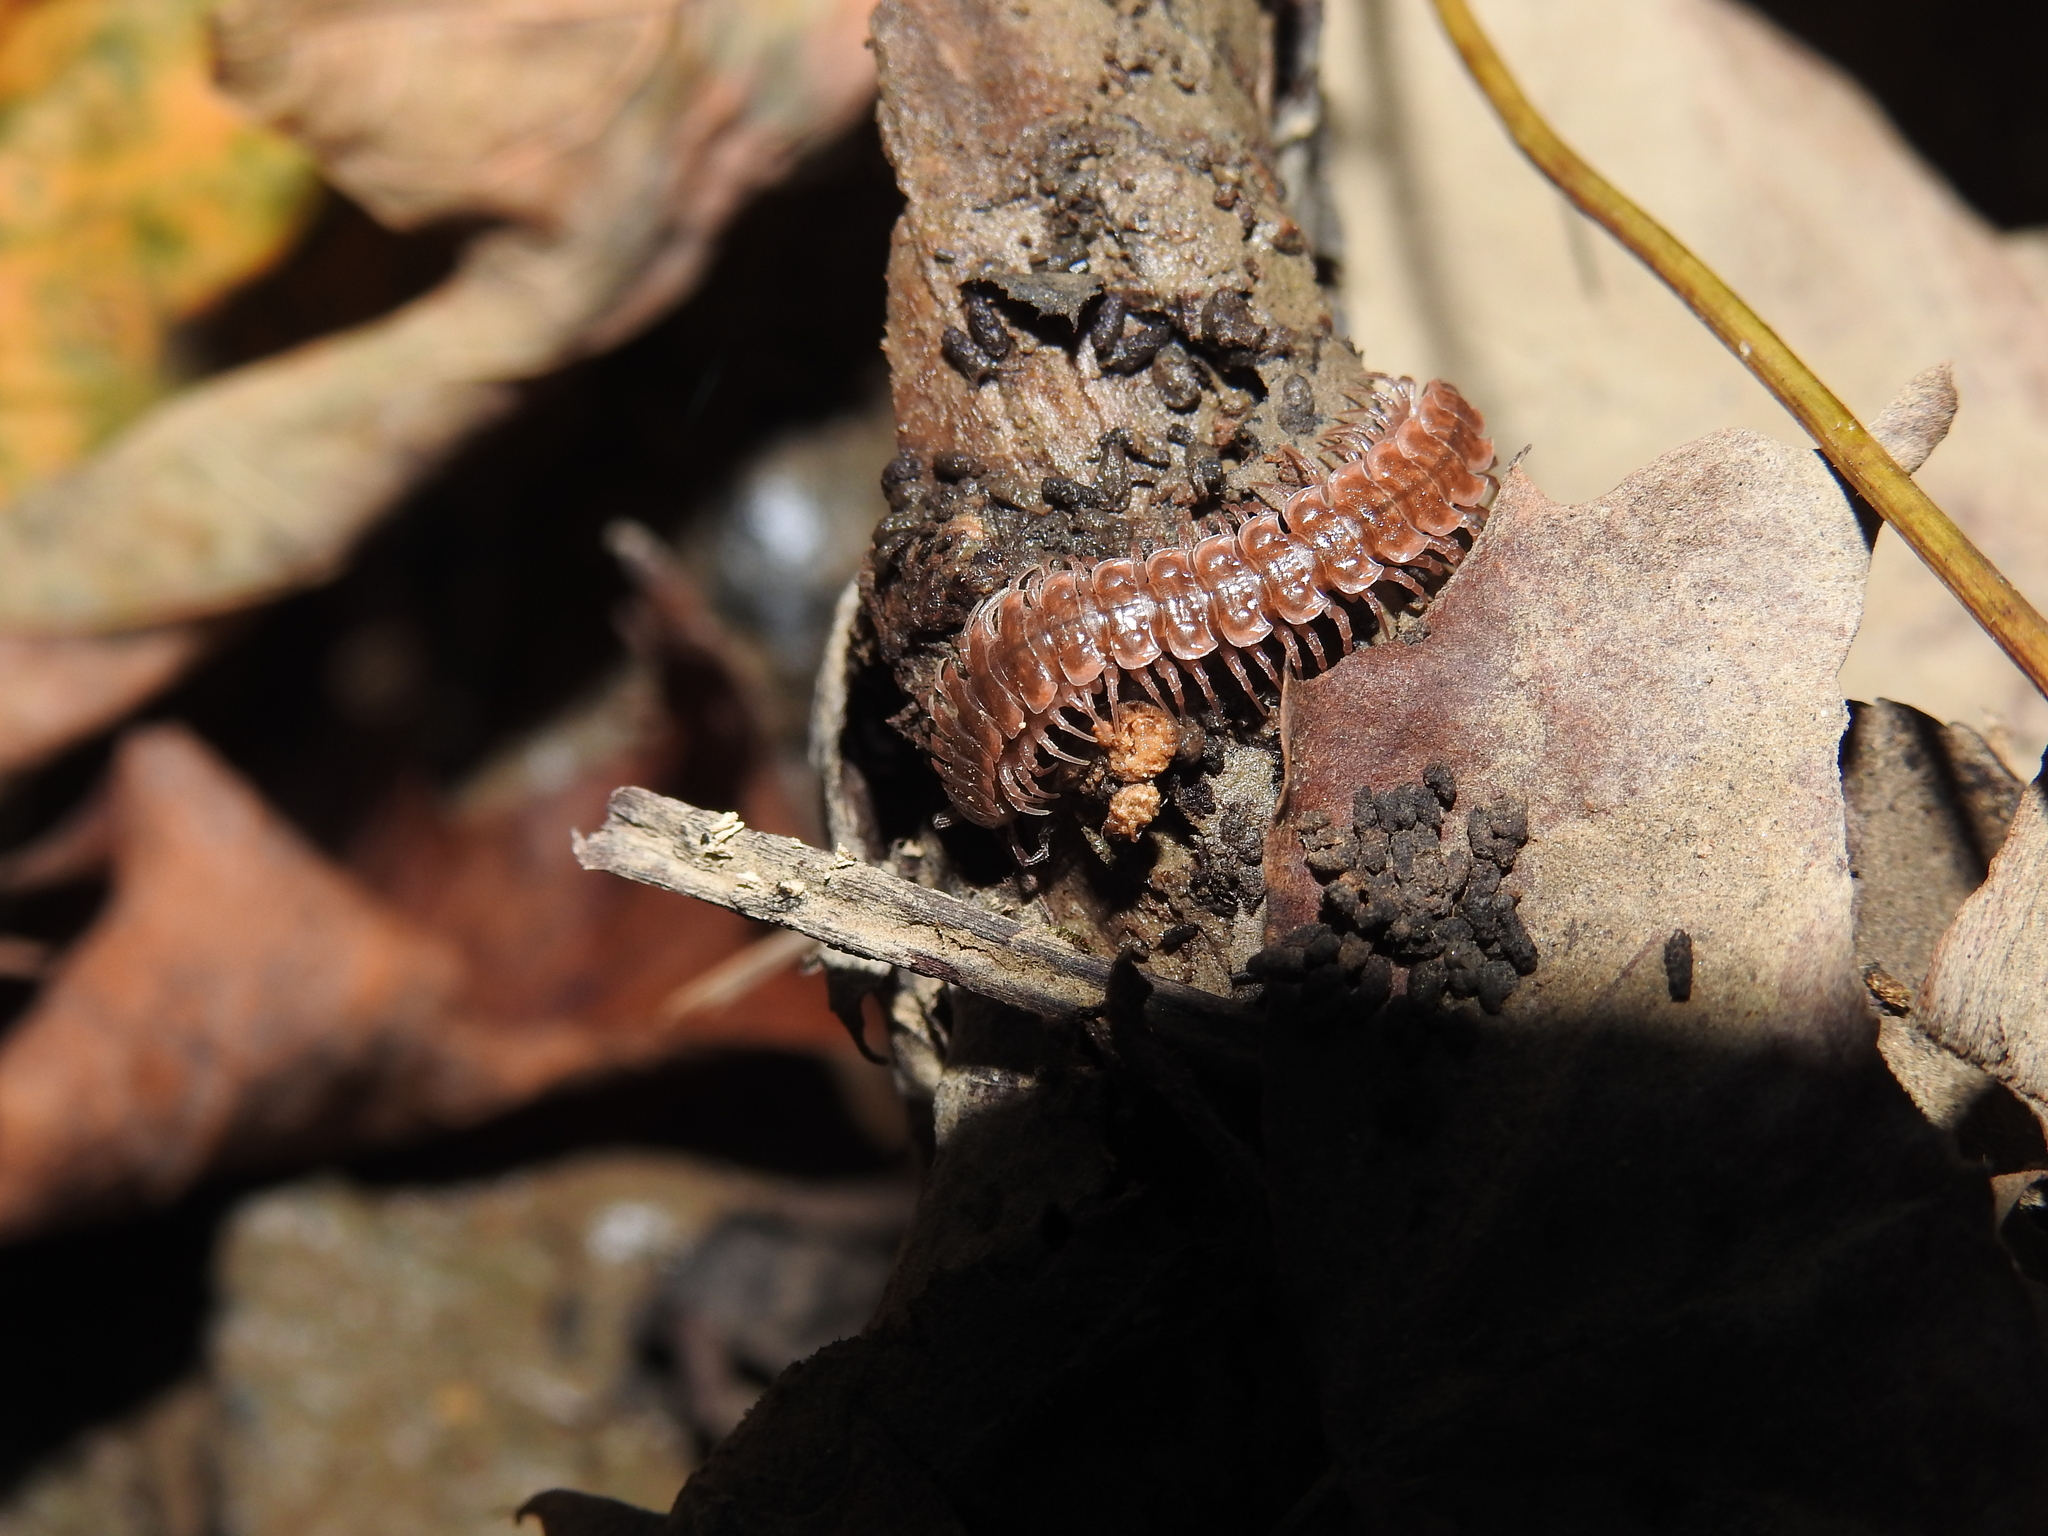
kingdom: Animalia
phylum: Arthropoda
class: Diplopoda
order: Polydesmida
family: Polydesmidae
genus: Pseudopolydesmus
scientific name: Pseudopolydesmus serratus
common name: Common pink flat-back millipede
